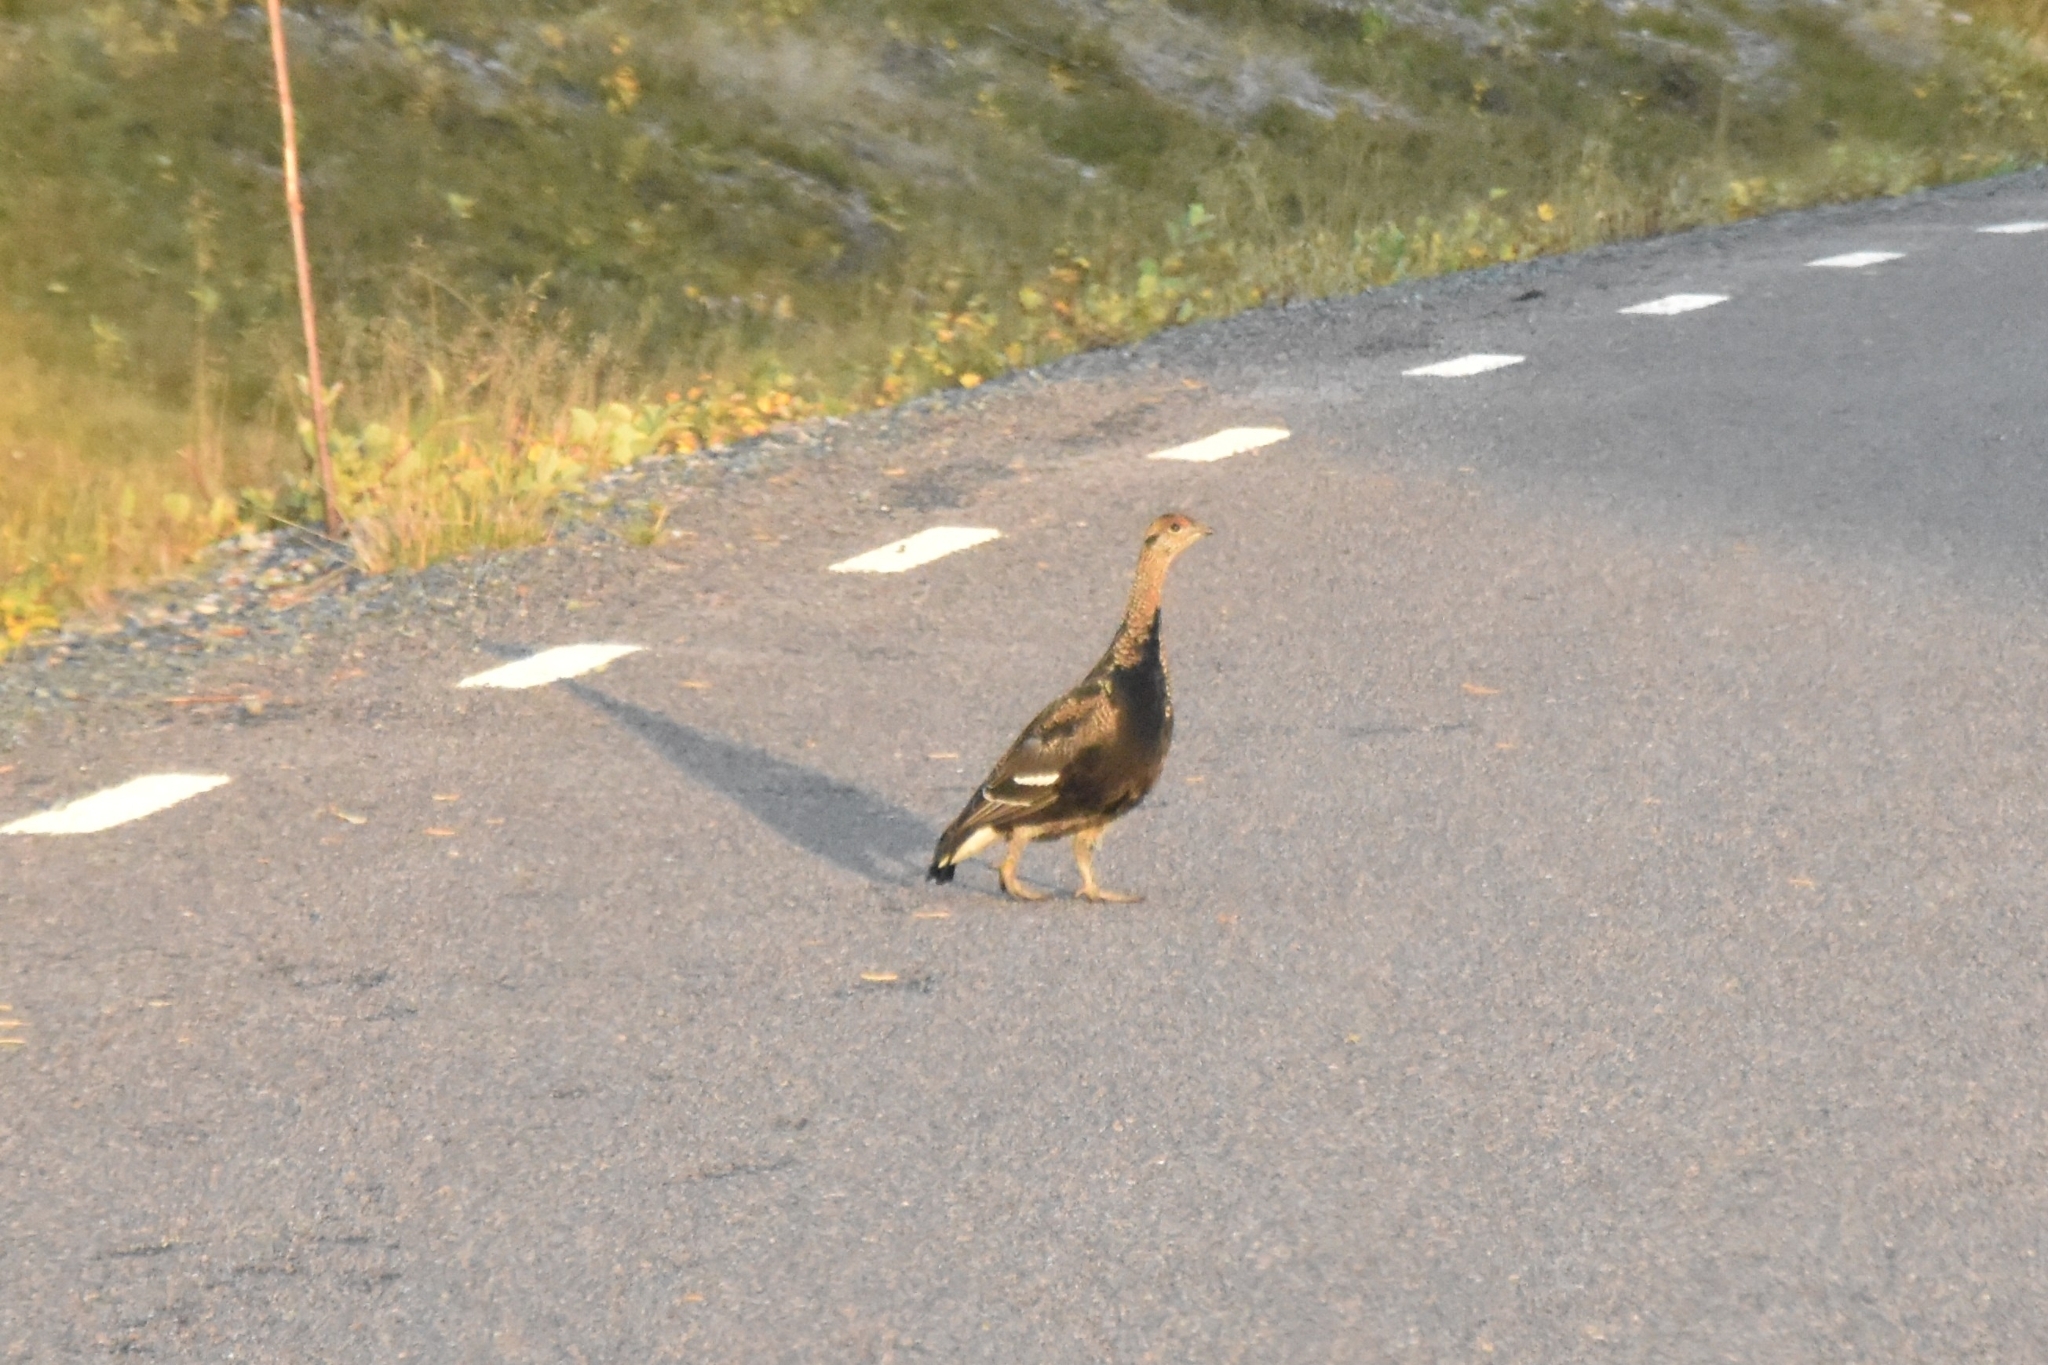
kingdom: Animalia
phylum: Chordata
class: Aves
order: Galliformes
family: Phasianidae
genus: Lyrurus
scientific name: Lyrurus tetrix
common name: Black grouse
